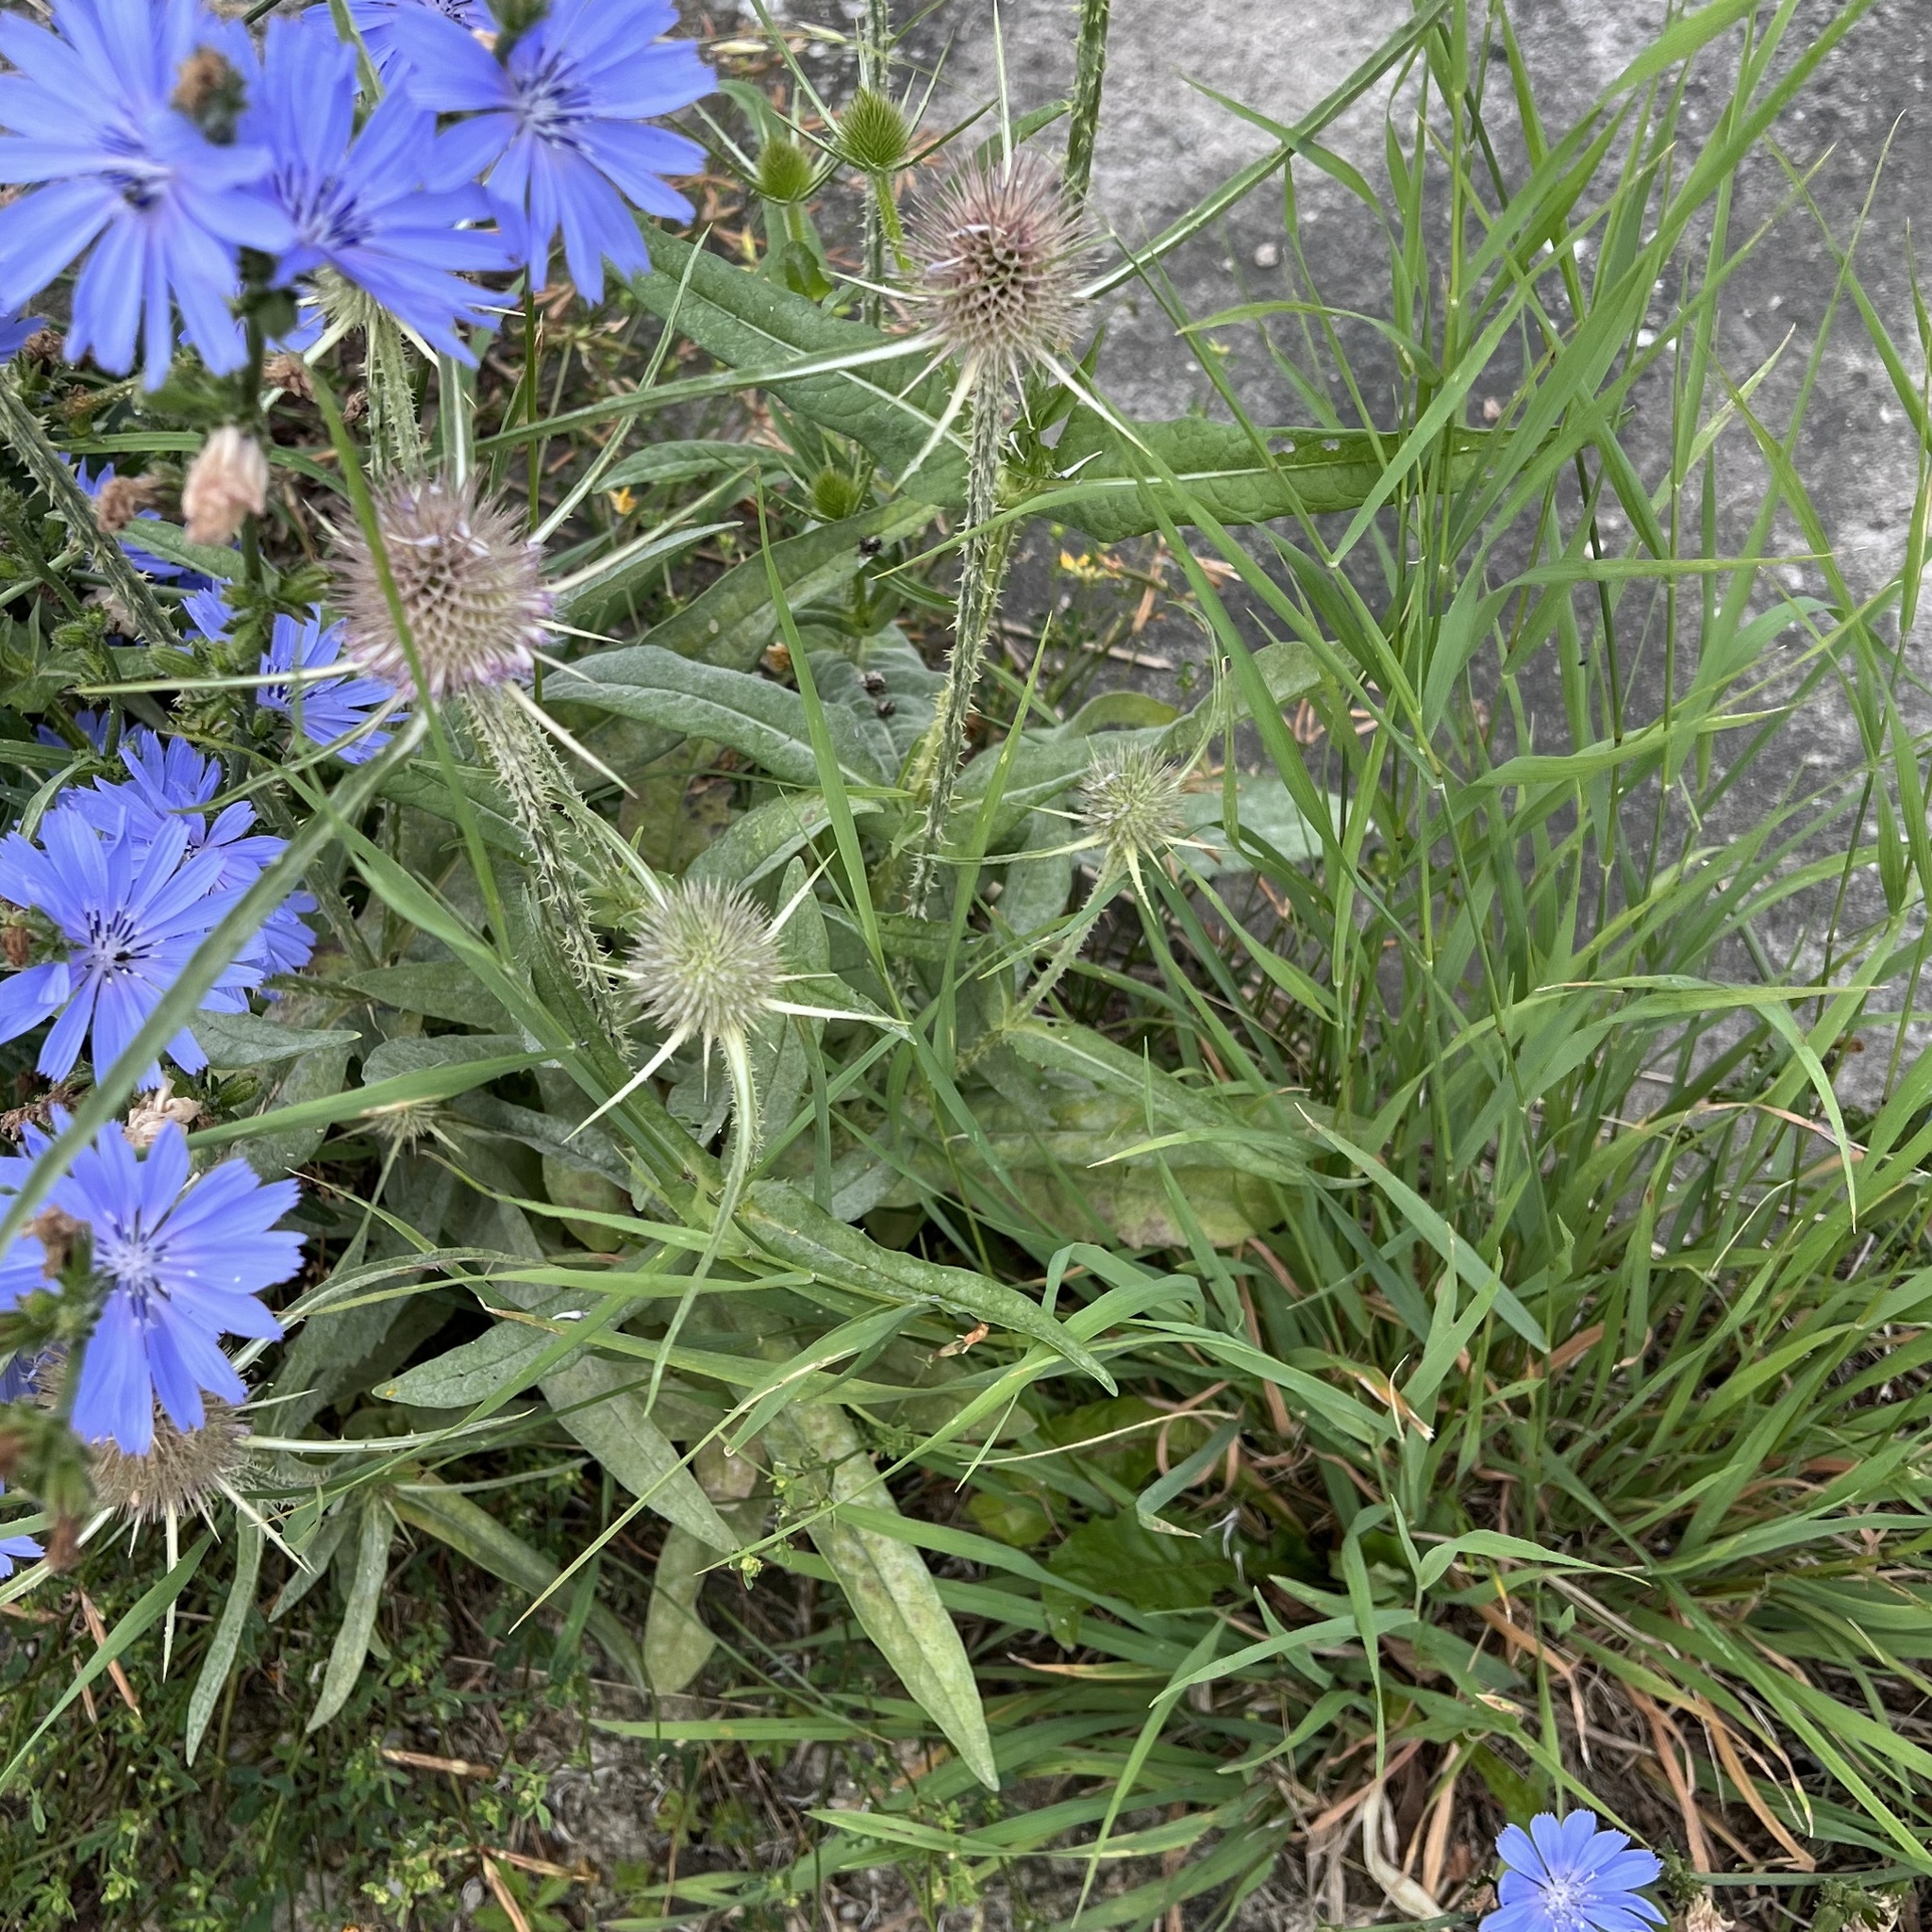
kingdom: Plantae
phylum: Tracheophyta
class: Magnoliopsida
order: Dipsacales
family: Caprifoliaceae
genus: Dipsacus
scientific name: Dipsacus fullonum
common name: Teasel
